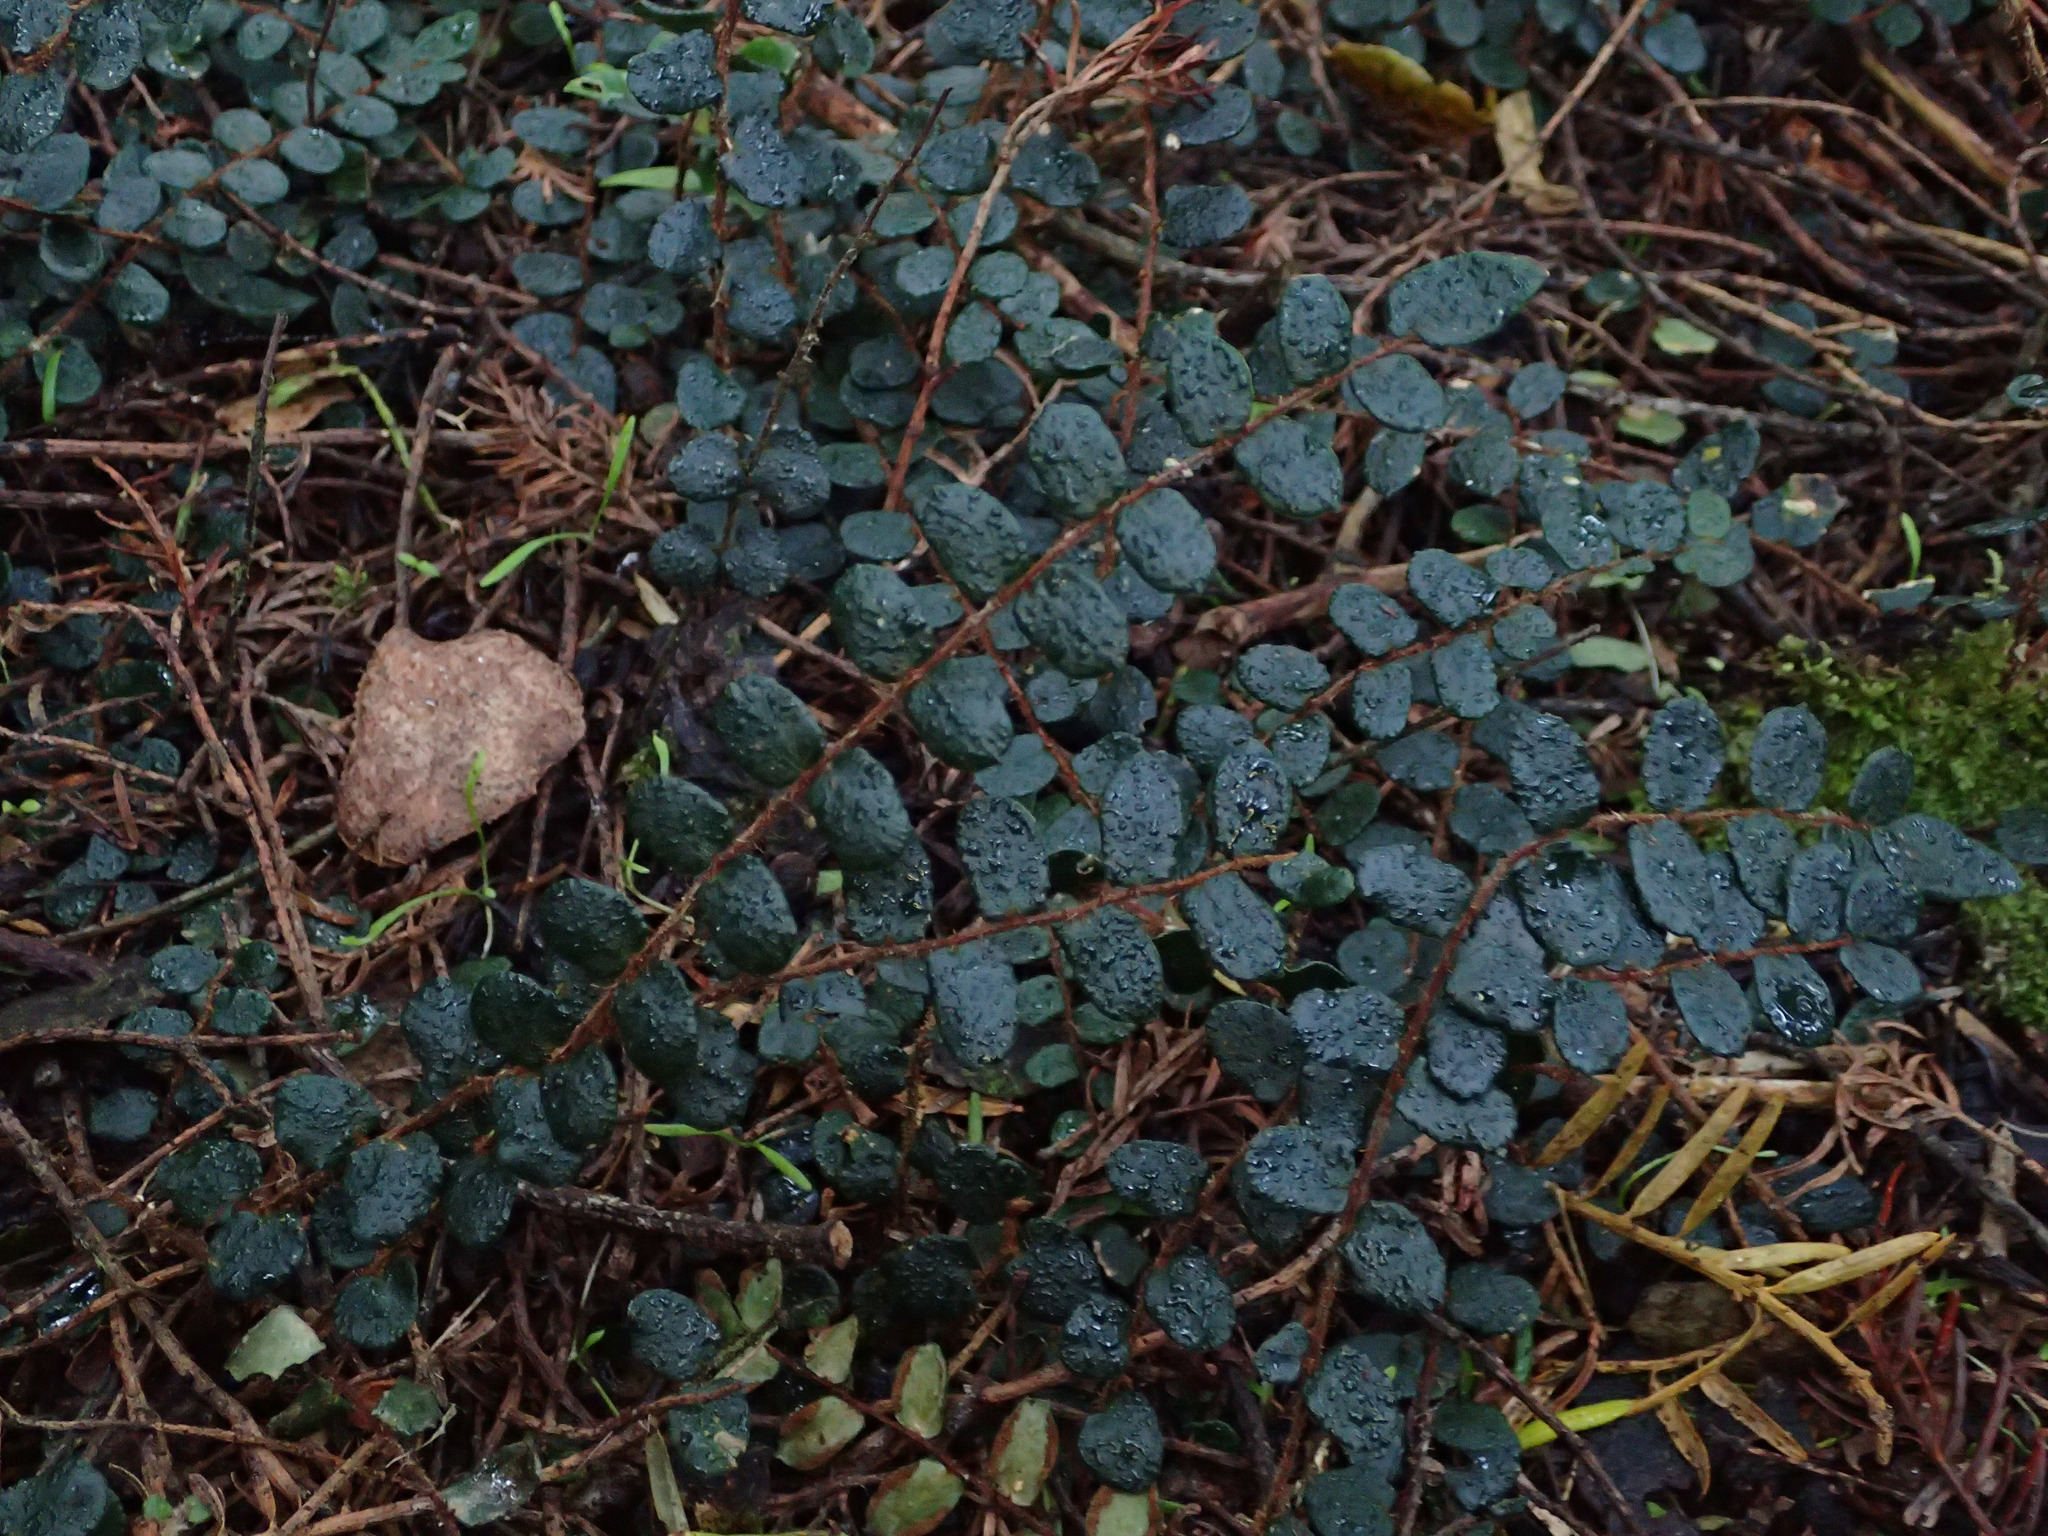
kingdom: Plantae
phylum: Tracheophyta
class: Polypodiopsida
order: Polypodiales
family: Pteridaceae
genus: Pellaea
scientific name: Pellaea rotundifolia
